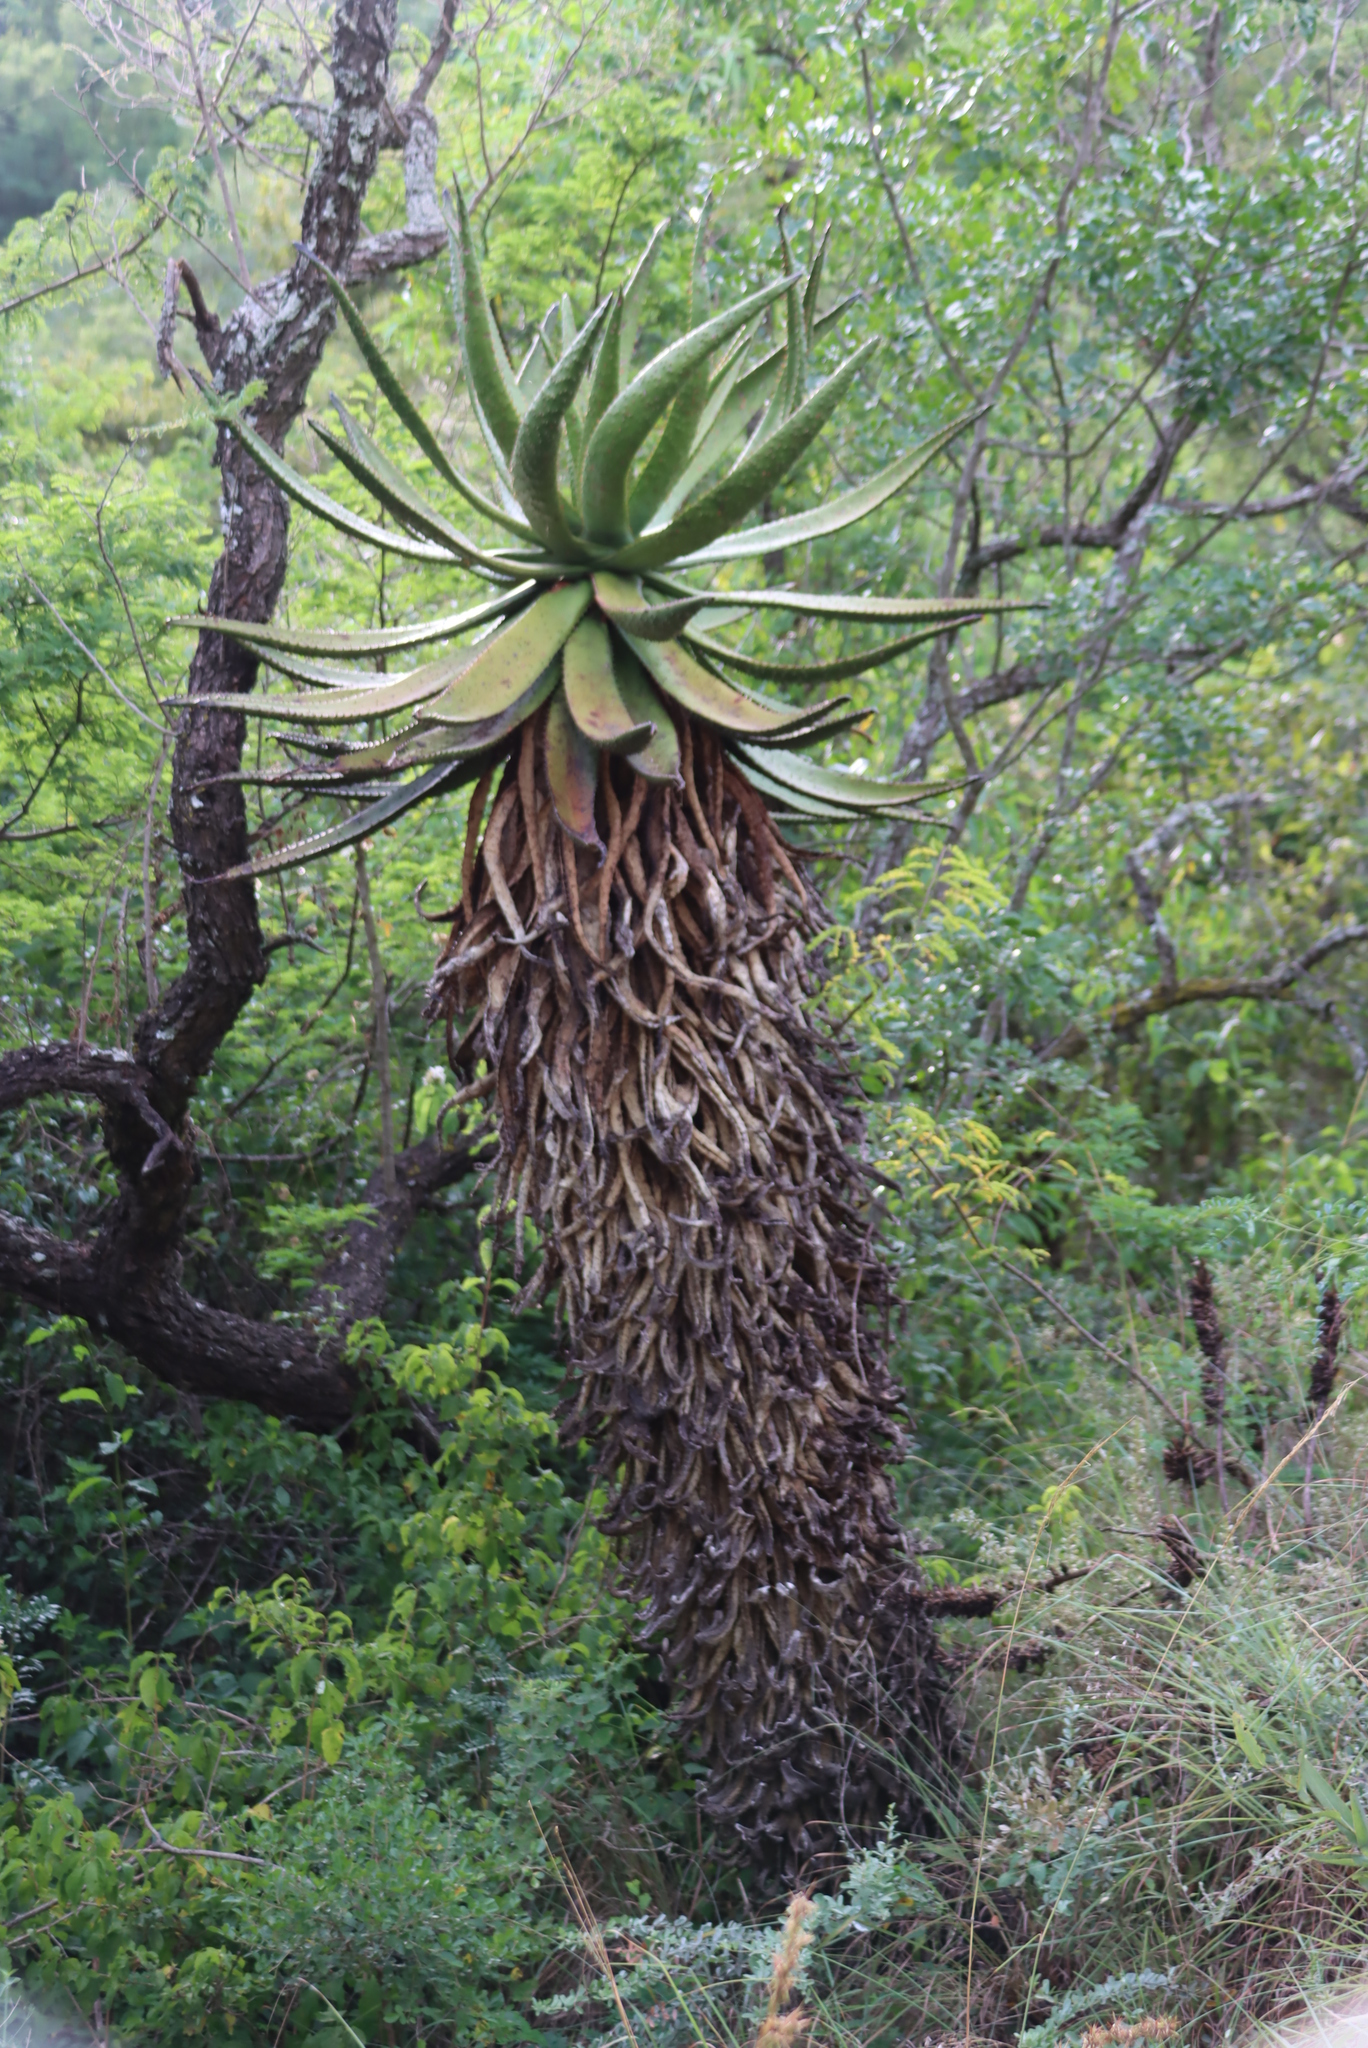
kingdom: Plantae
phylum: Tracheophyta
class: Liliopsida
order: Asparagales
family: Asphodelaceae
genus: Aloe
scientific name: Aloe marlothii
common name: Flat-flowered aloe
